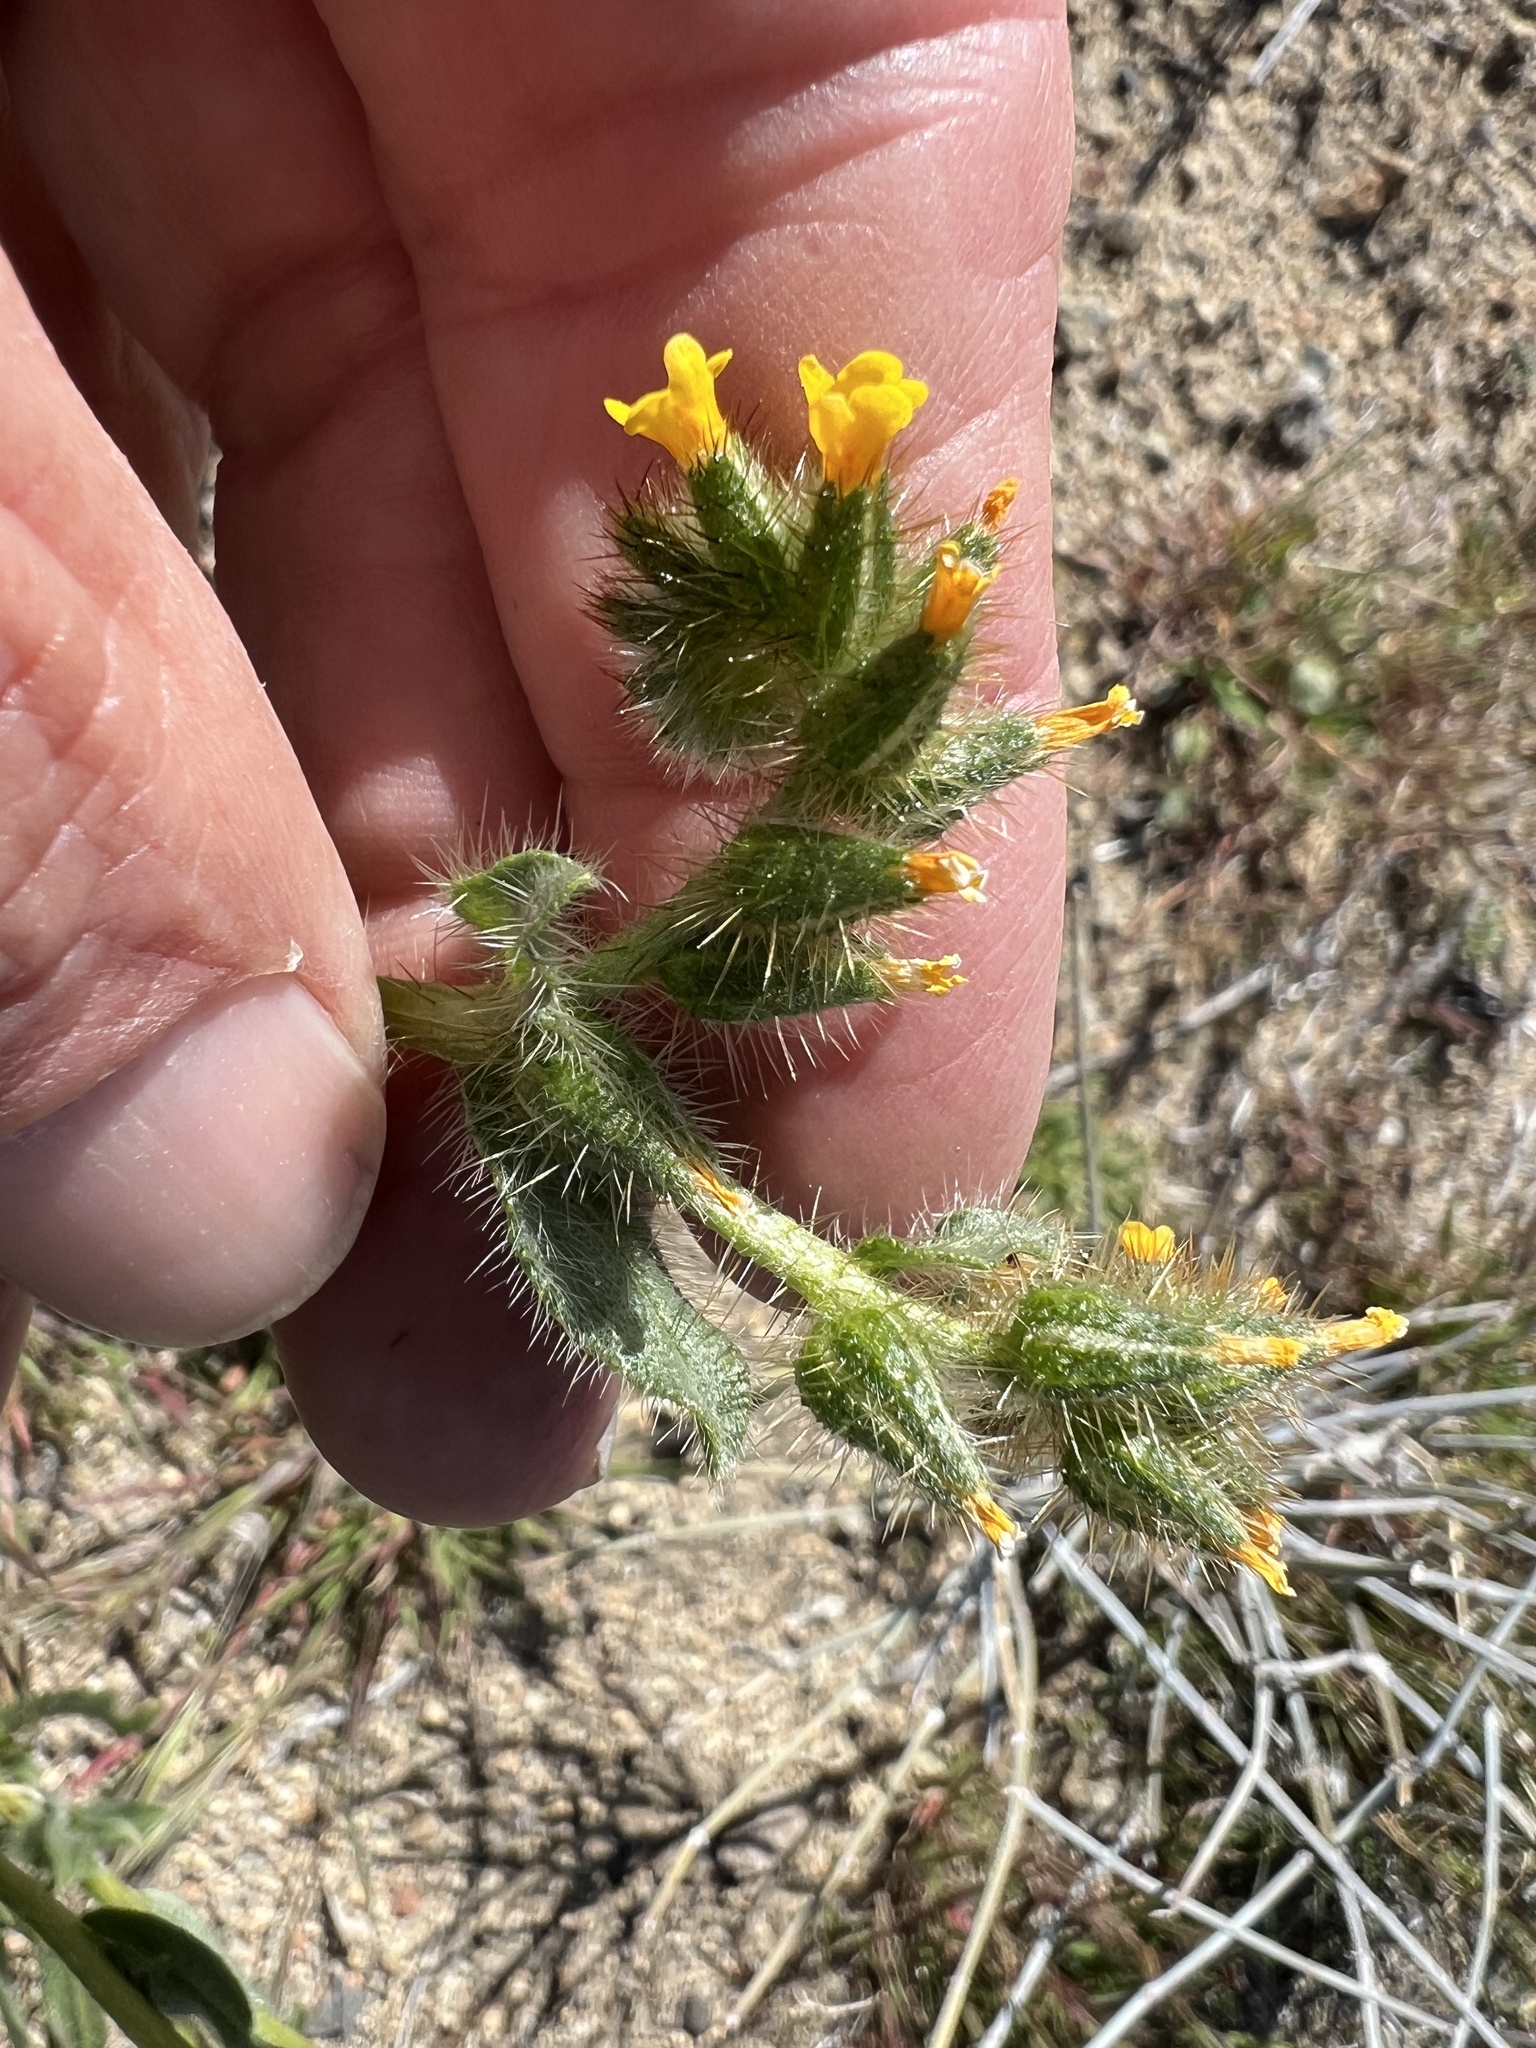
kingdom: Plantae
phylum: Tracheophyta
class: Magnoliopsida
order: Boraginales
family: Boraginaceae
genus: Amsinckia
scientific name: Amsinckia tessellata
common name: Tessellate fiddleneck
